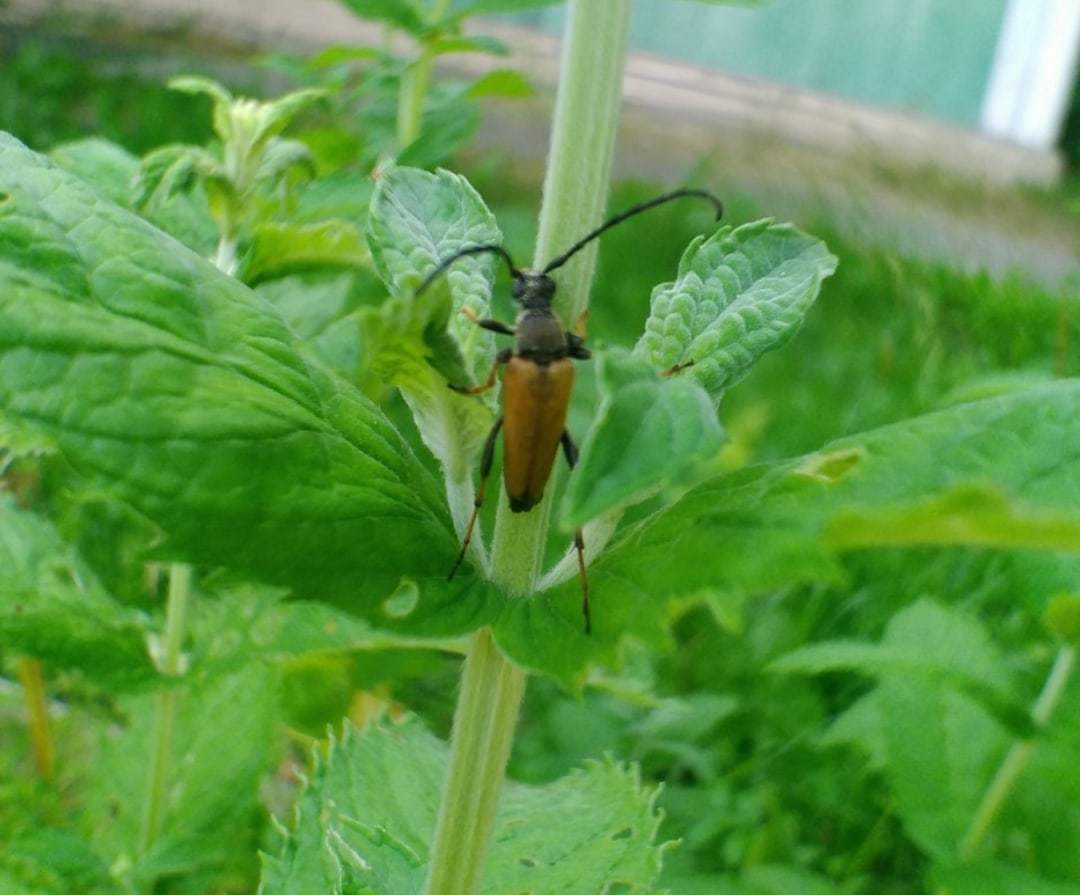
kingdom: Animalia
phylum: Arthropoda
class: Insecta
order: Coleoptera
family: Cerambycidae
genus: Stictoleptura
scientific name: Stictoleptura rubra
